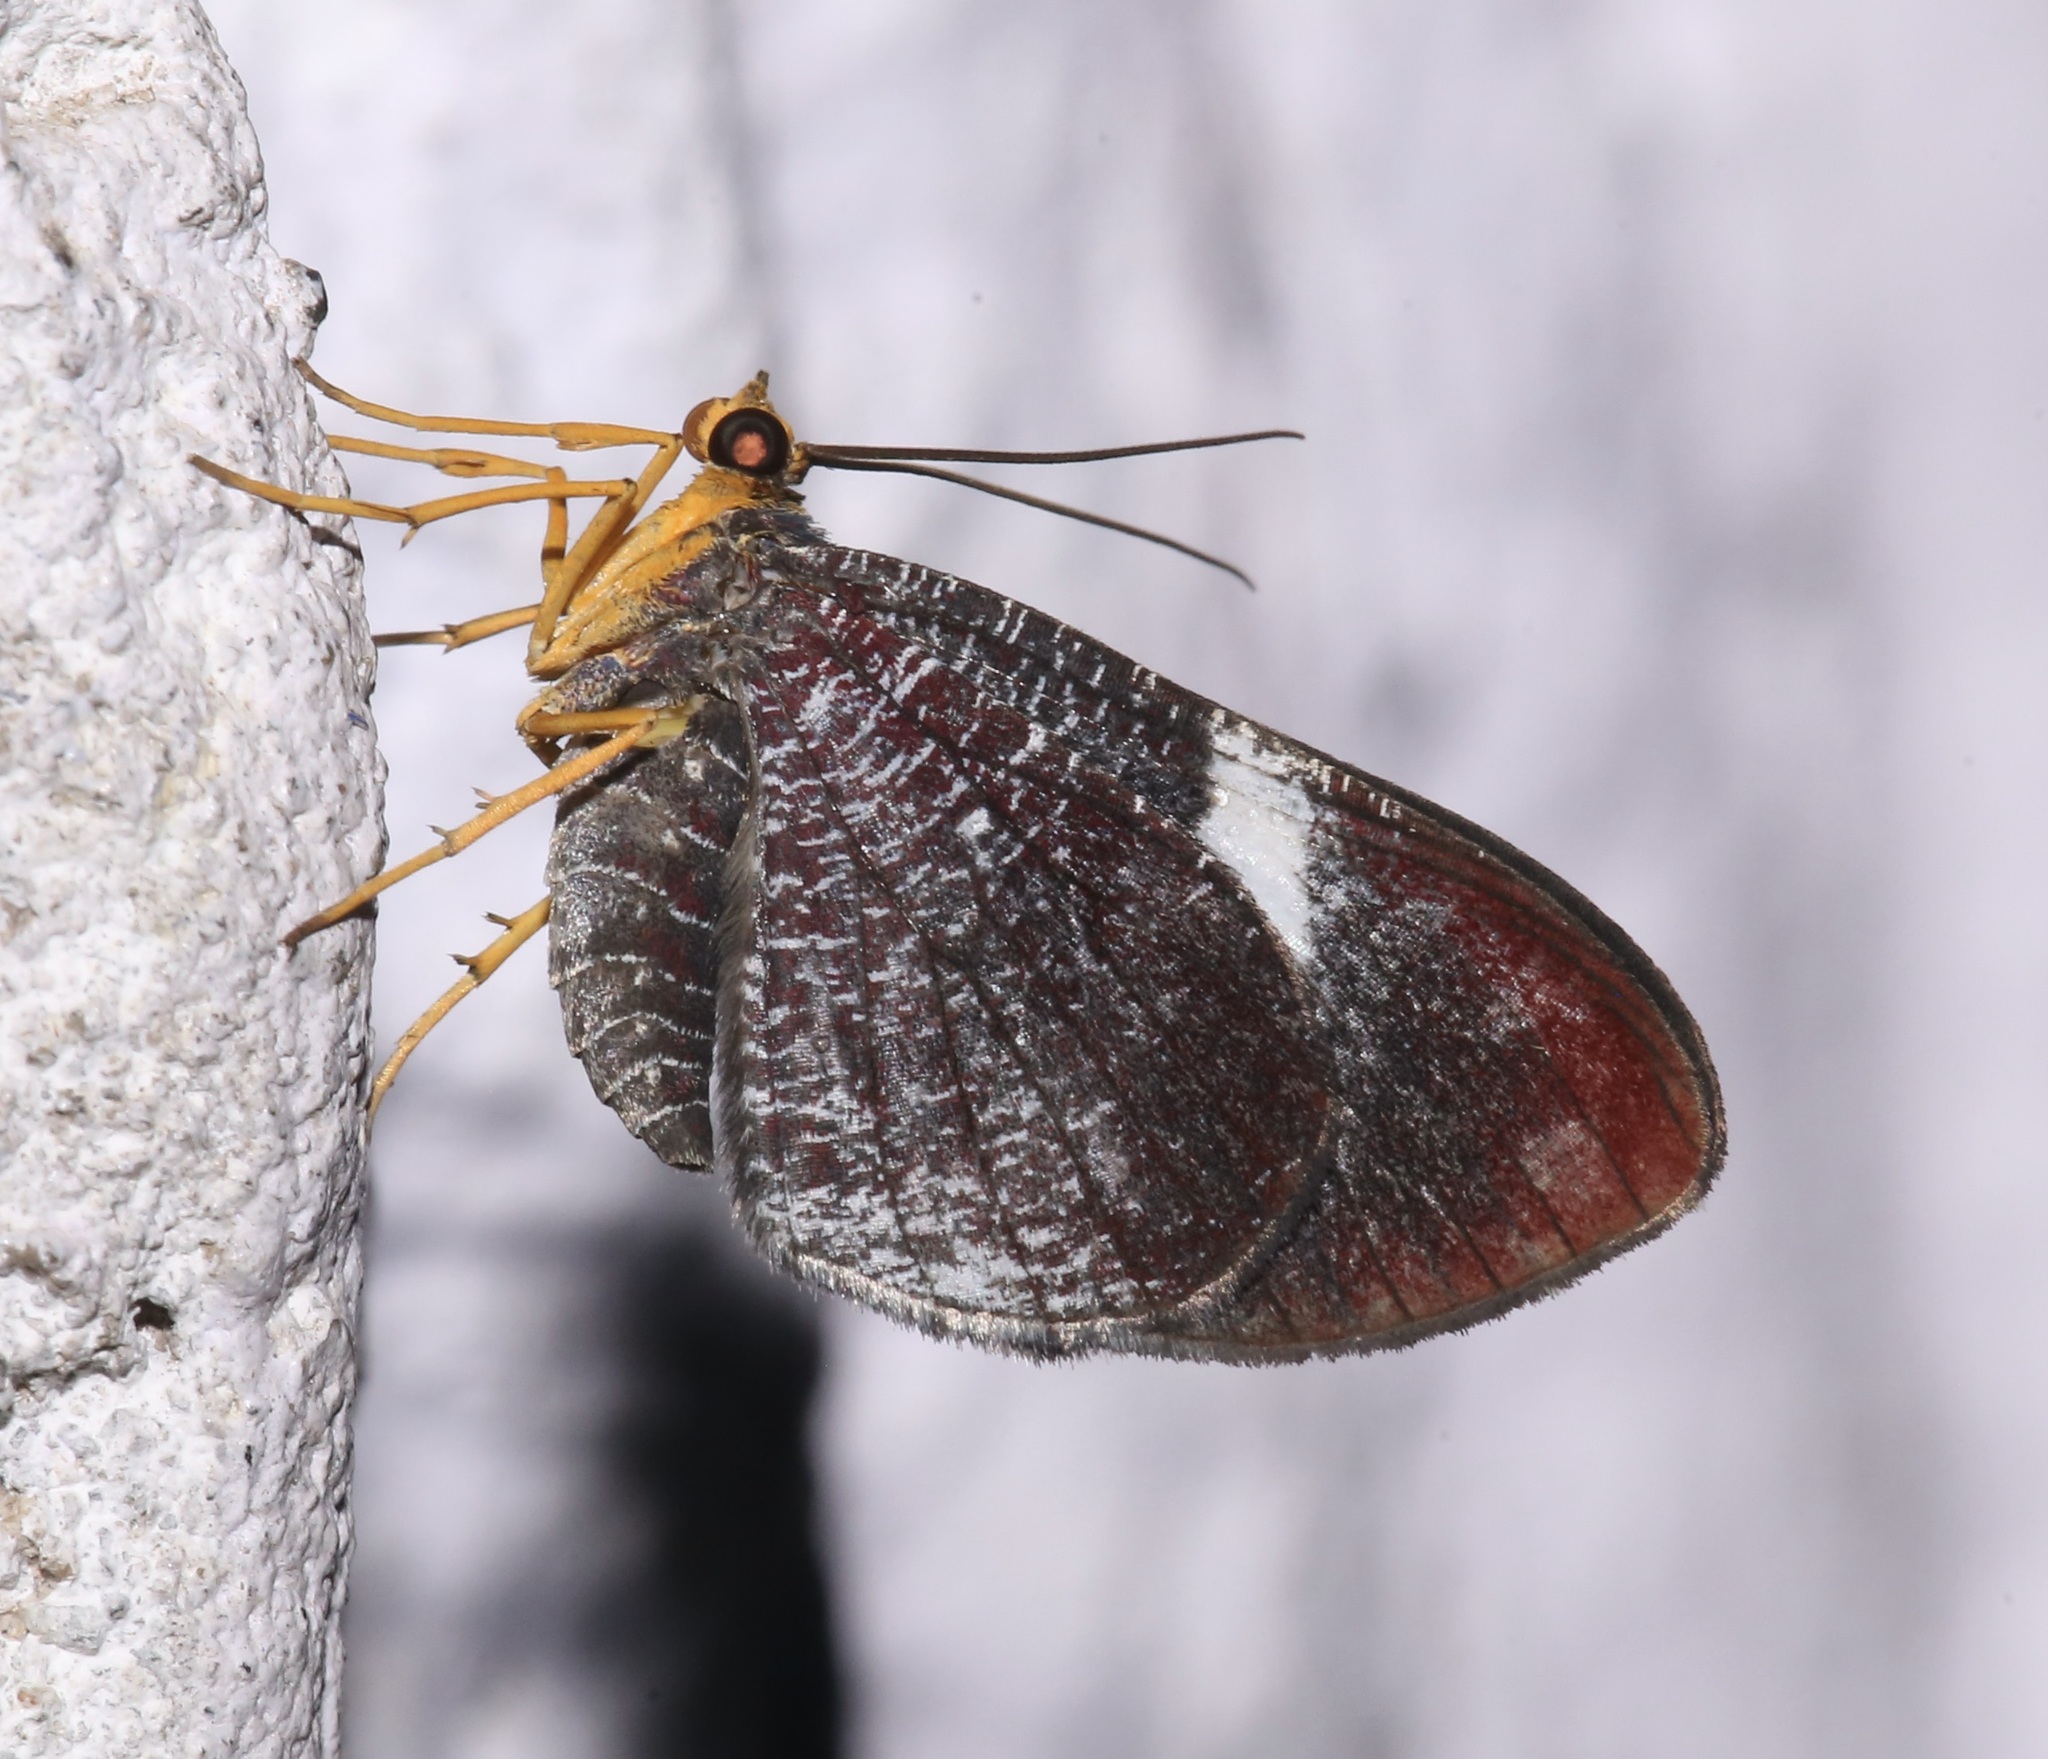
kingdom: Animalia
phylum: Arthropoda
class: Insecta
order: Lepidoptera
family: Geometridae
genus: Hagnagora
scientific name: Hagnagora mortipax
